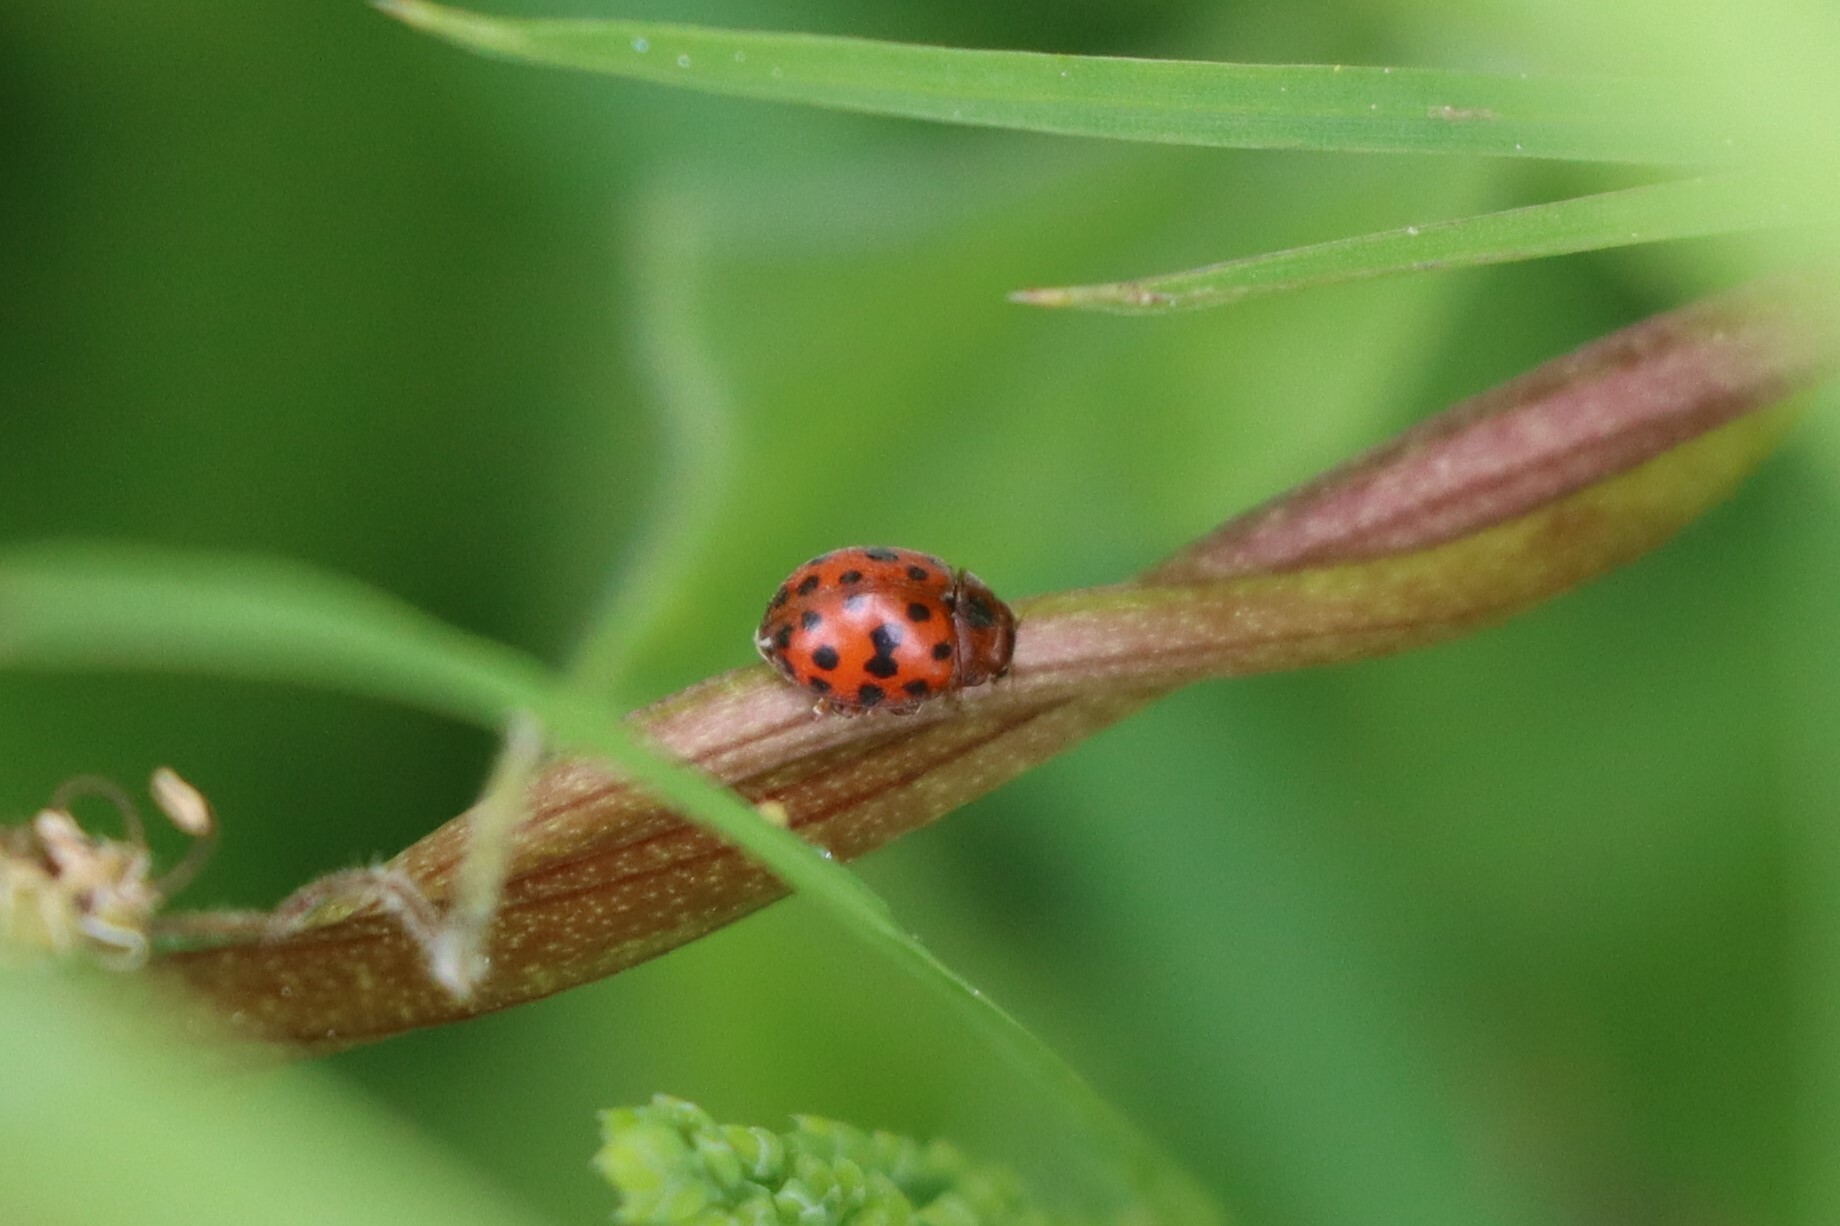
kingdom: Animalia
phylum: Arthropoda
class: Insecta
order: Coleoptera
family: Coccinellidae
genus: Subcoccinella
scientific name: Subcoccinella vigintiquatuorpunctata
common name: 24-spot ladybird
